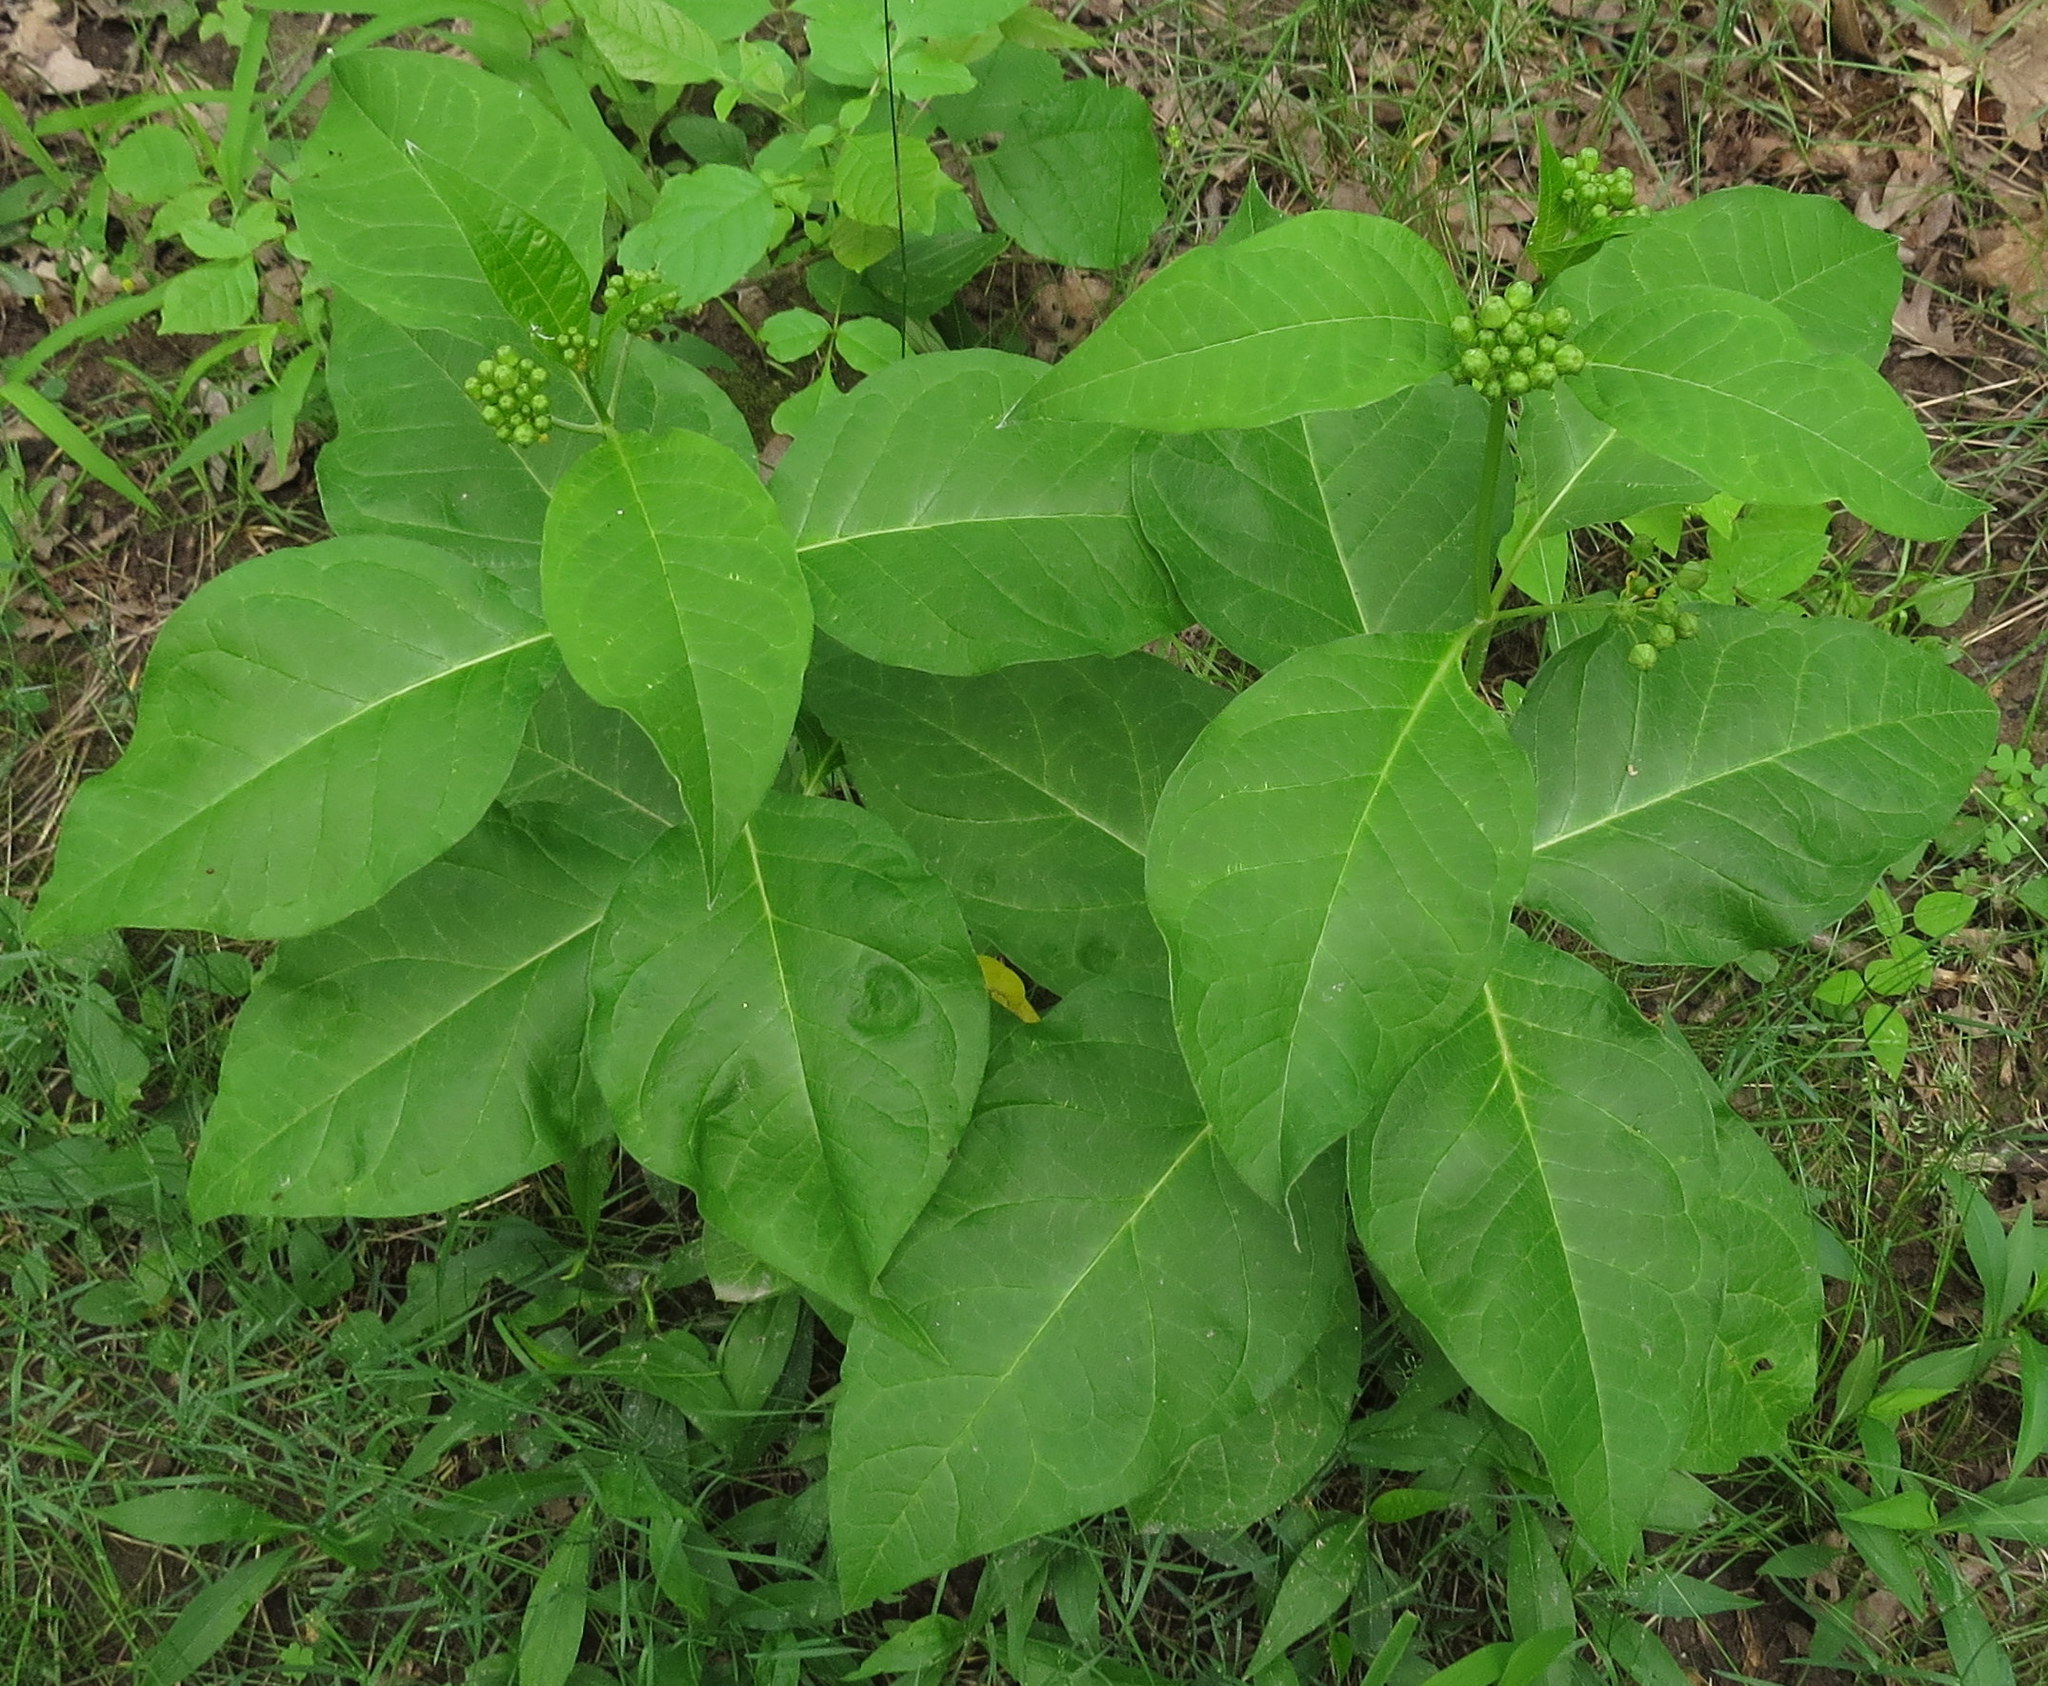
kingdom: Plantae
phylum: Tracheophyta
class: Magnoliopsida
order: Gentianales
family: Apocynaceae
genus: Asclepias
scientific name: Asclepias exaltata
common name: Poke milkweed
